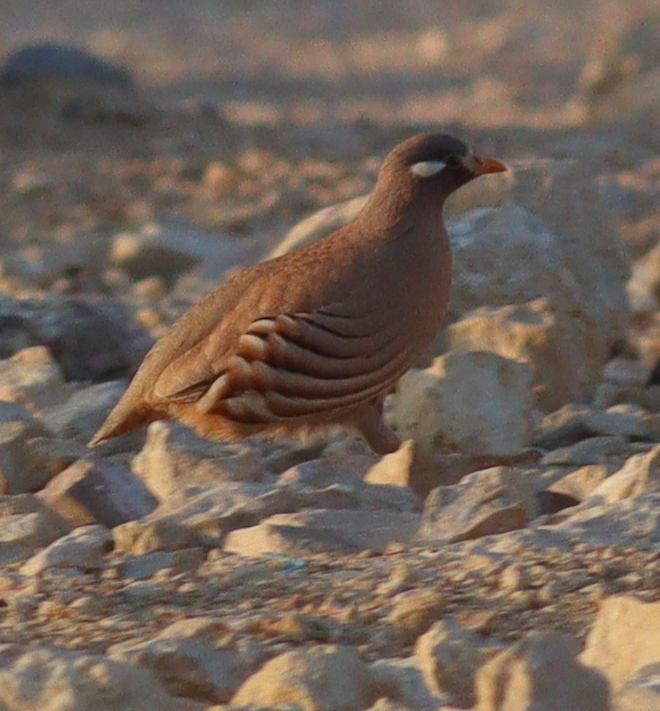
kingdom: Animalia
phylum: Chordata
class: Aves
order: Galliformes
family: Phasianidae
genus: Ammoperdix
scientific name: Ammoperdix heyi
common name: Sand partridge
